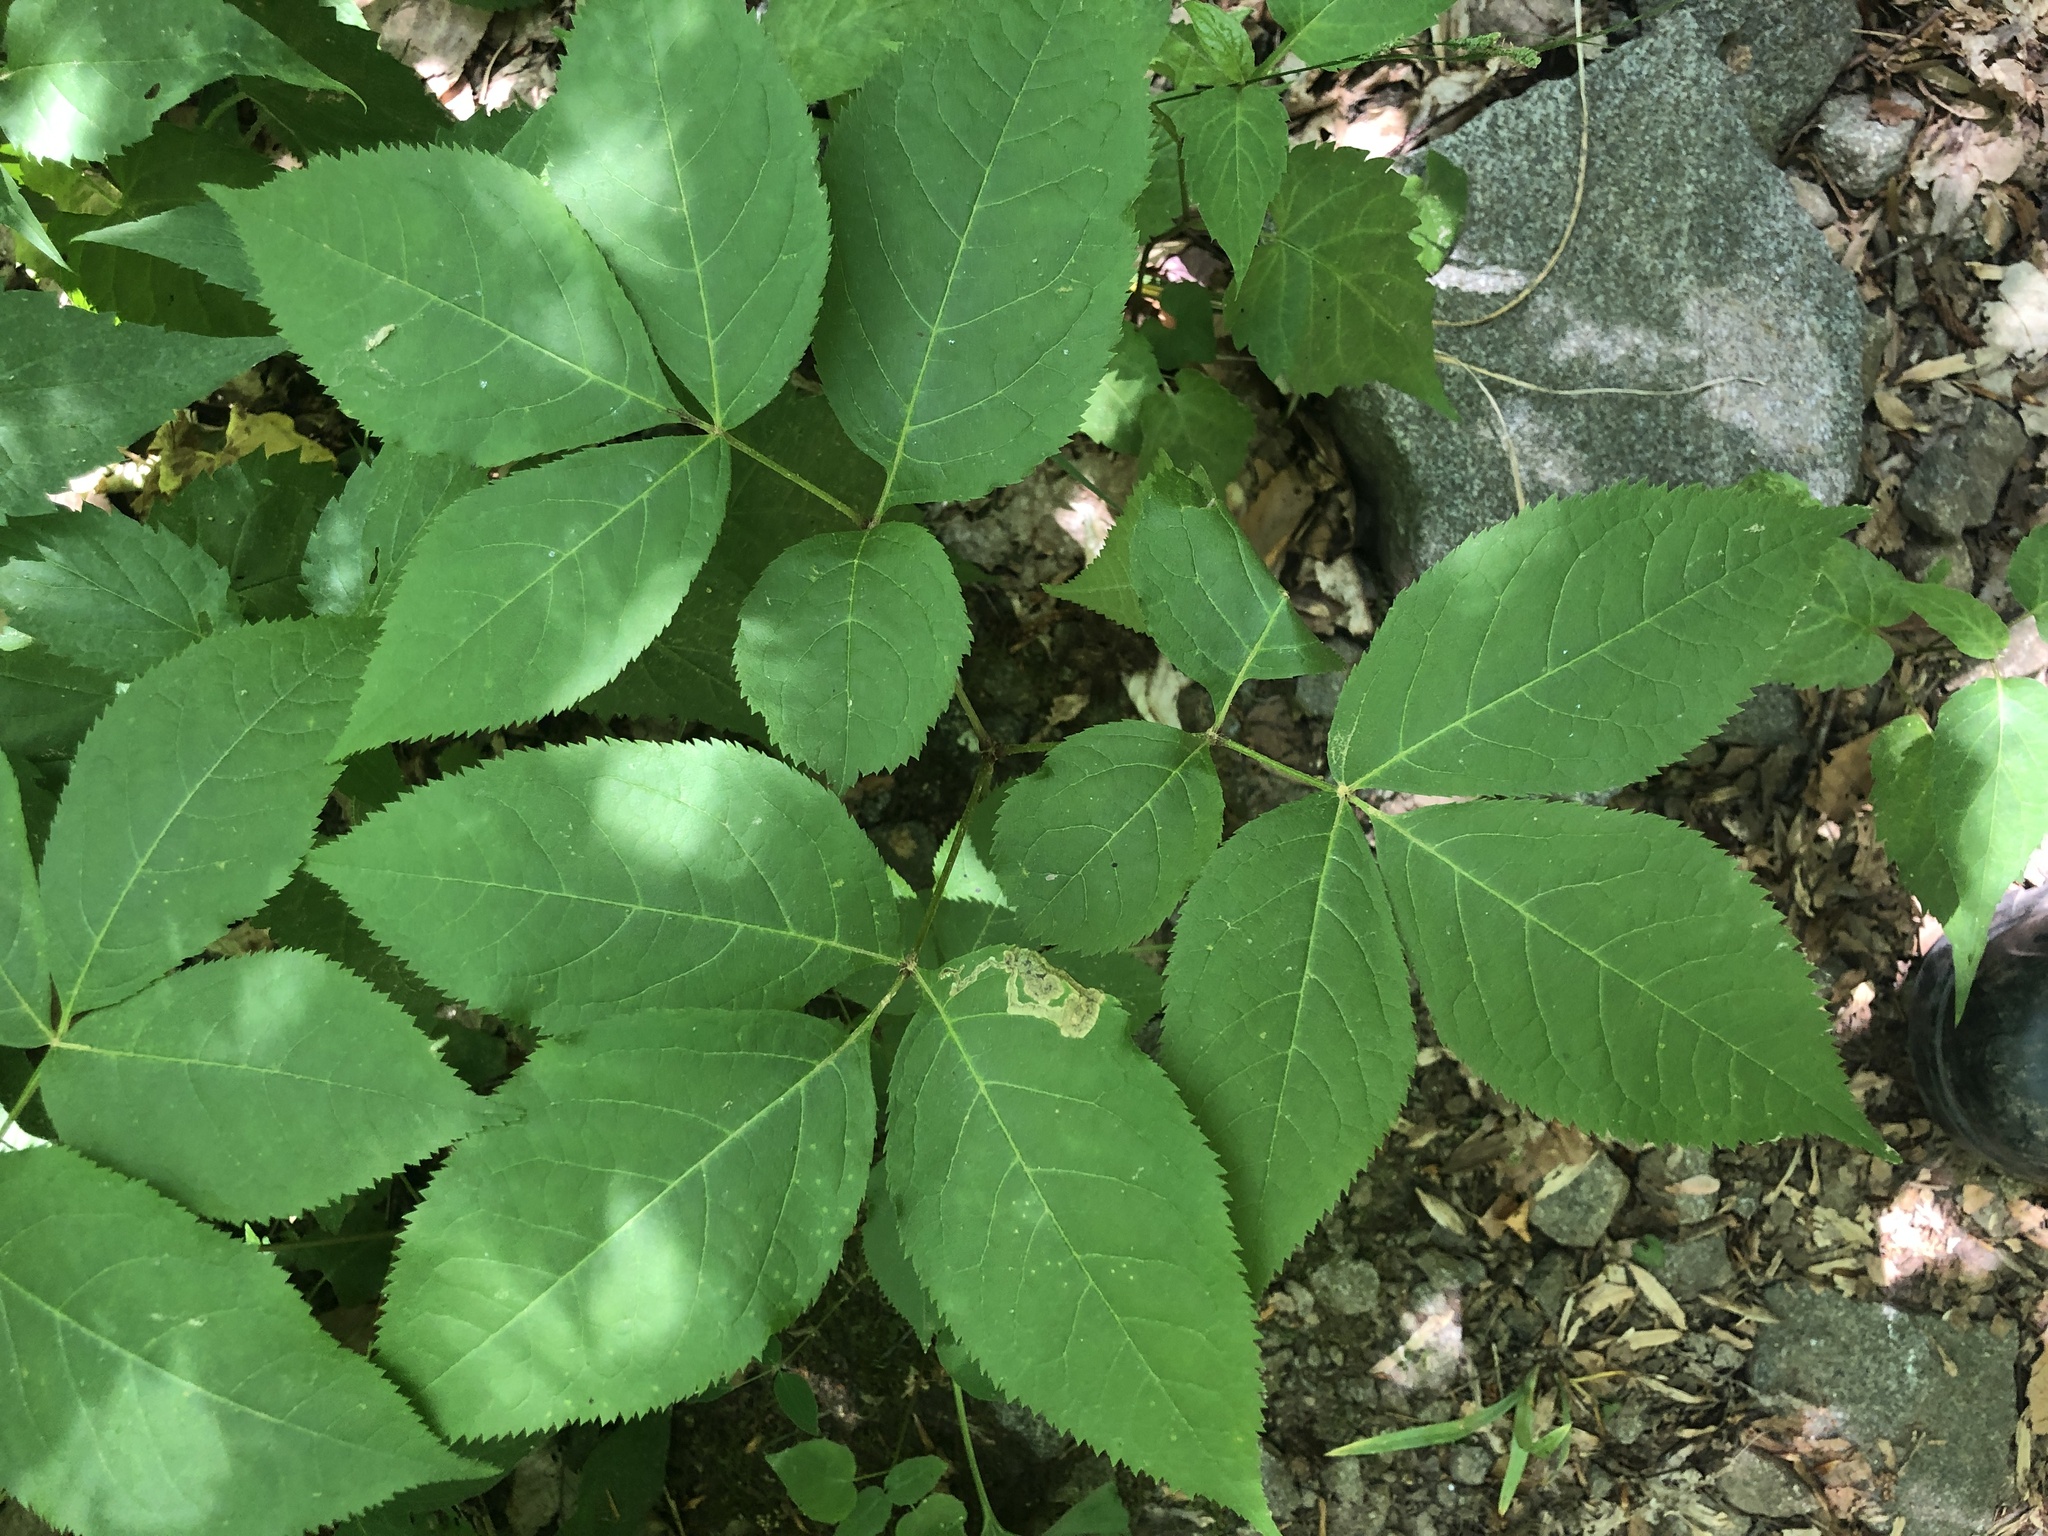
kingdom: Plantae
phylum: Tracheophyta
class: Magnoliopsida
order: Apiales
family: Araliaceae
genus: Aralia
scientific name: Aralia nudicaulis
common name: Wild sarsaparilla
